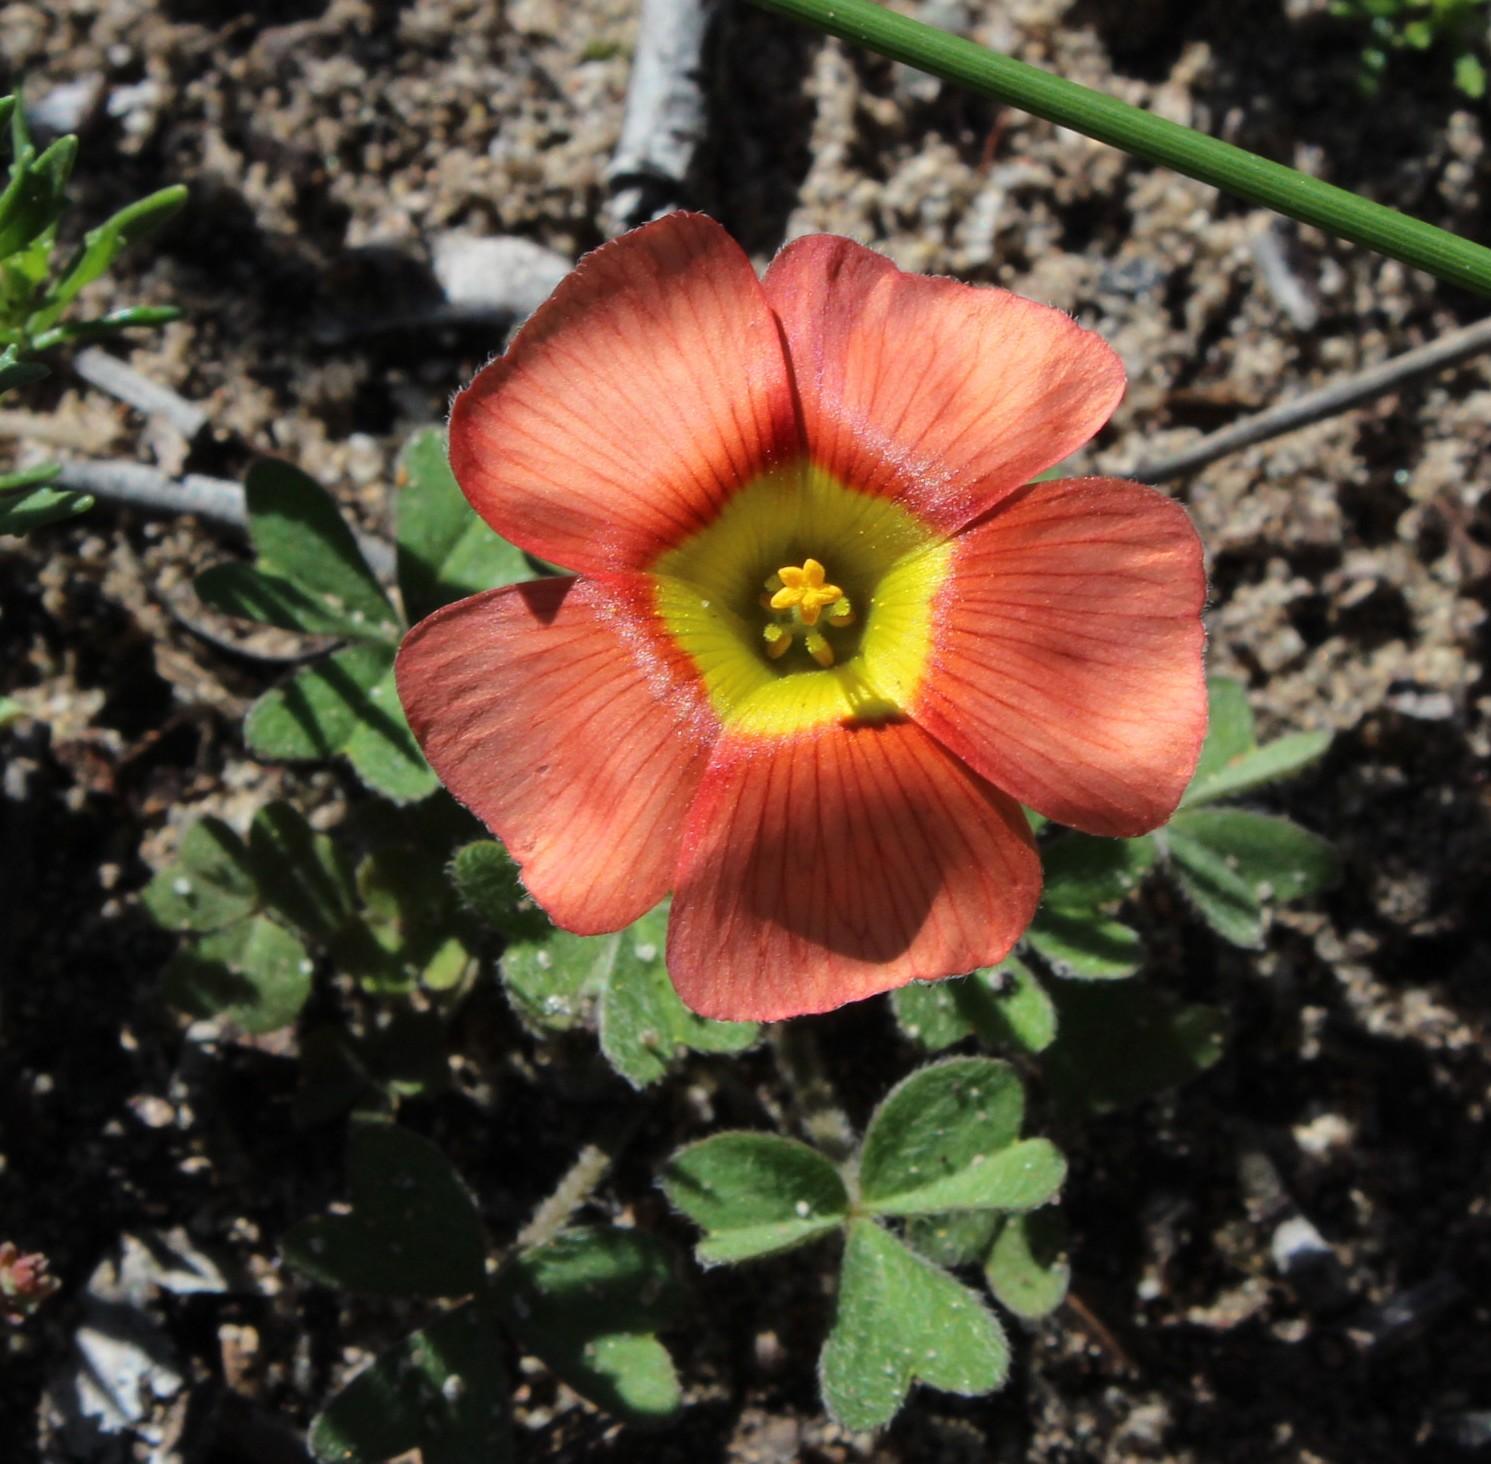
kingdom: Plantae
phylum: Tracheophyta
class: Magnoliopsida
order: Oxalidales
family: Oxalidaceae
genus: Oxalis
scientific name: Oxalis obtusa
